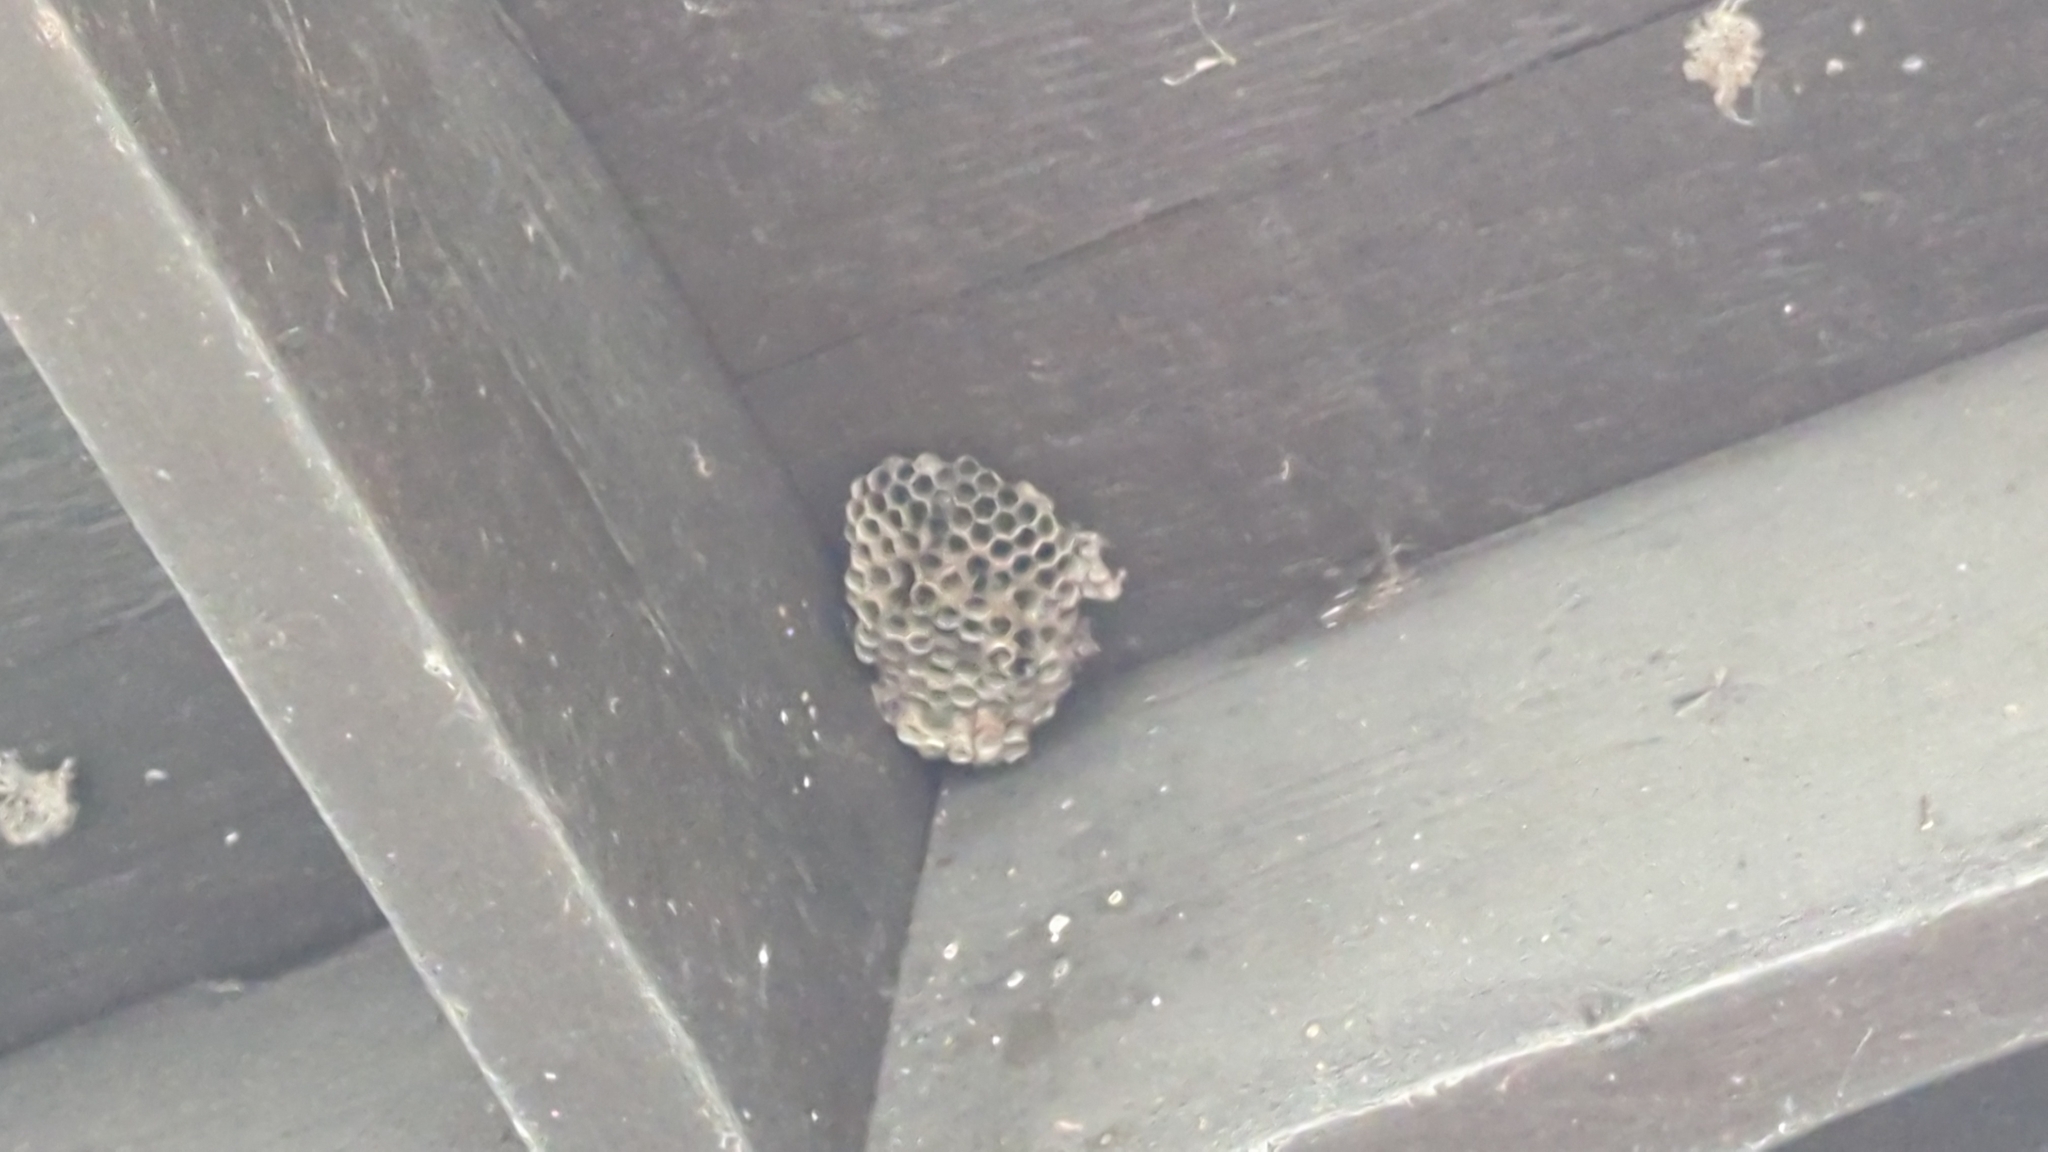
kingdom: Animalia
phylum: Arthropoda
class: Insecta
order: Hymenoptera
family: Eumenidae
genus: Polistes
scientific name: Polistes
